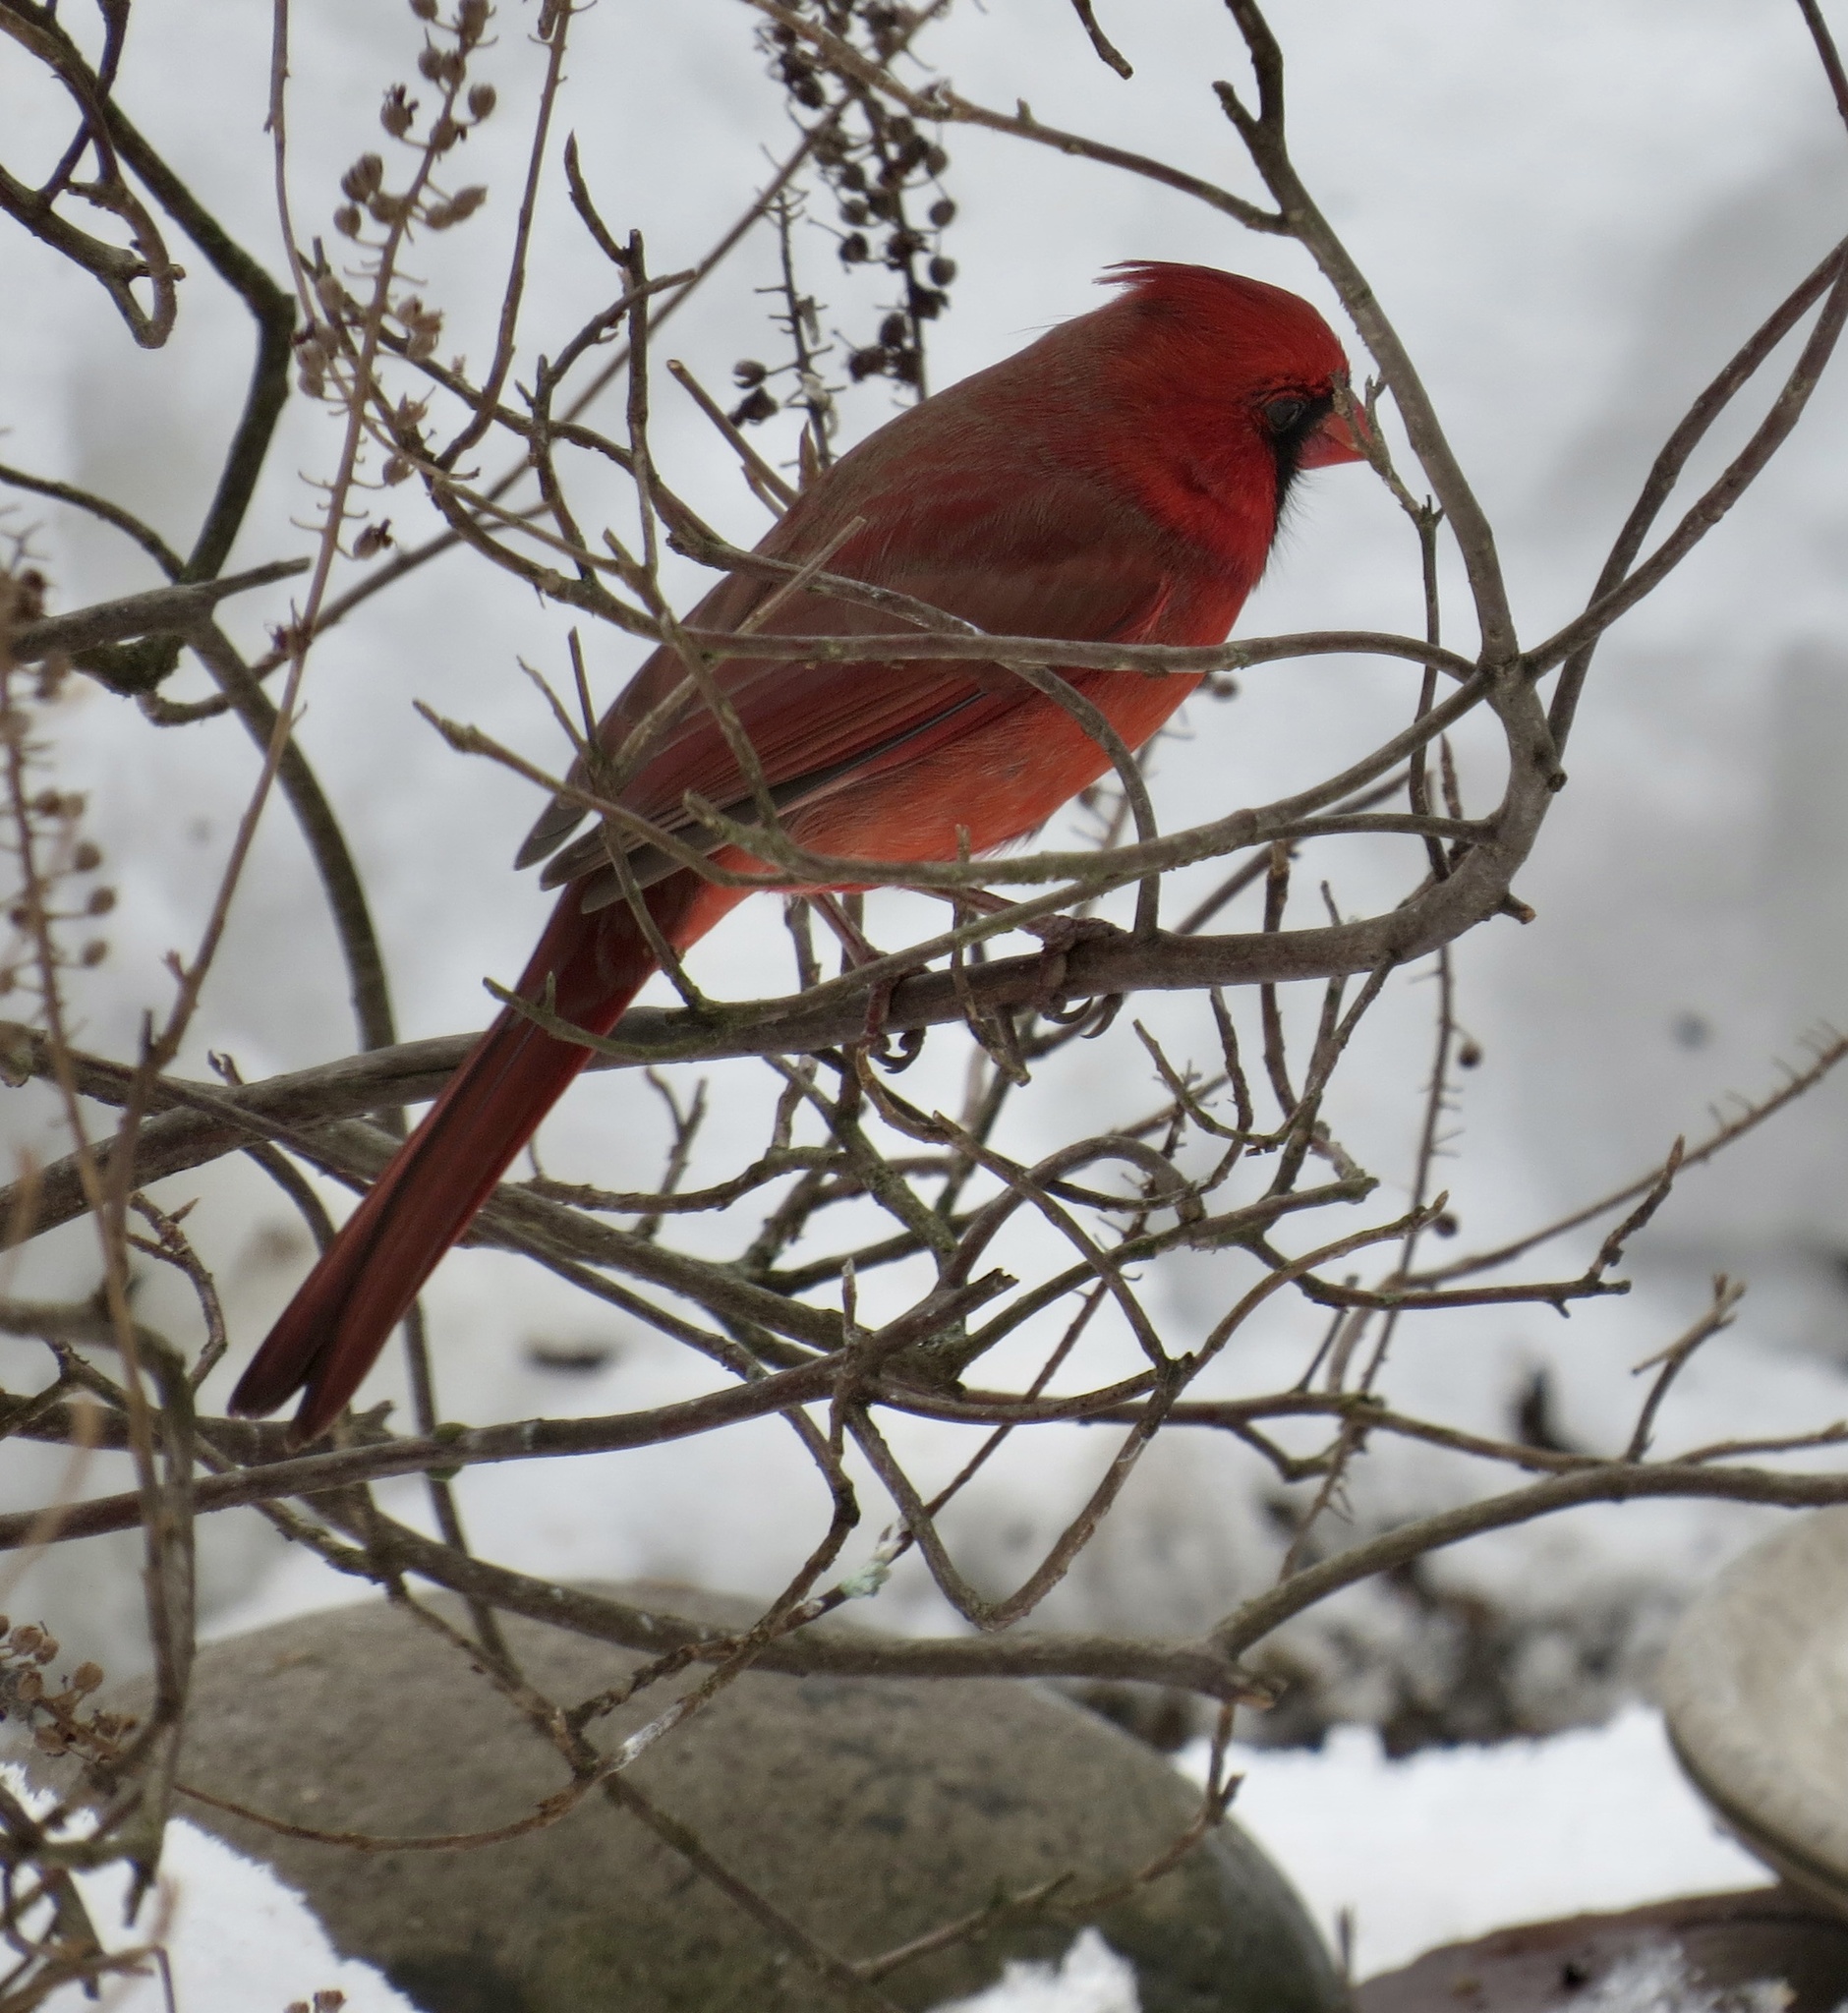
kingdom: Animalia
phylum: Chordata
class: Aves
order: Passeriformes
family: Cardinalidae
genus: Cardinalis
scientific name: Cardinalis cardinalis
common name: Northern cardinal
